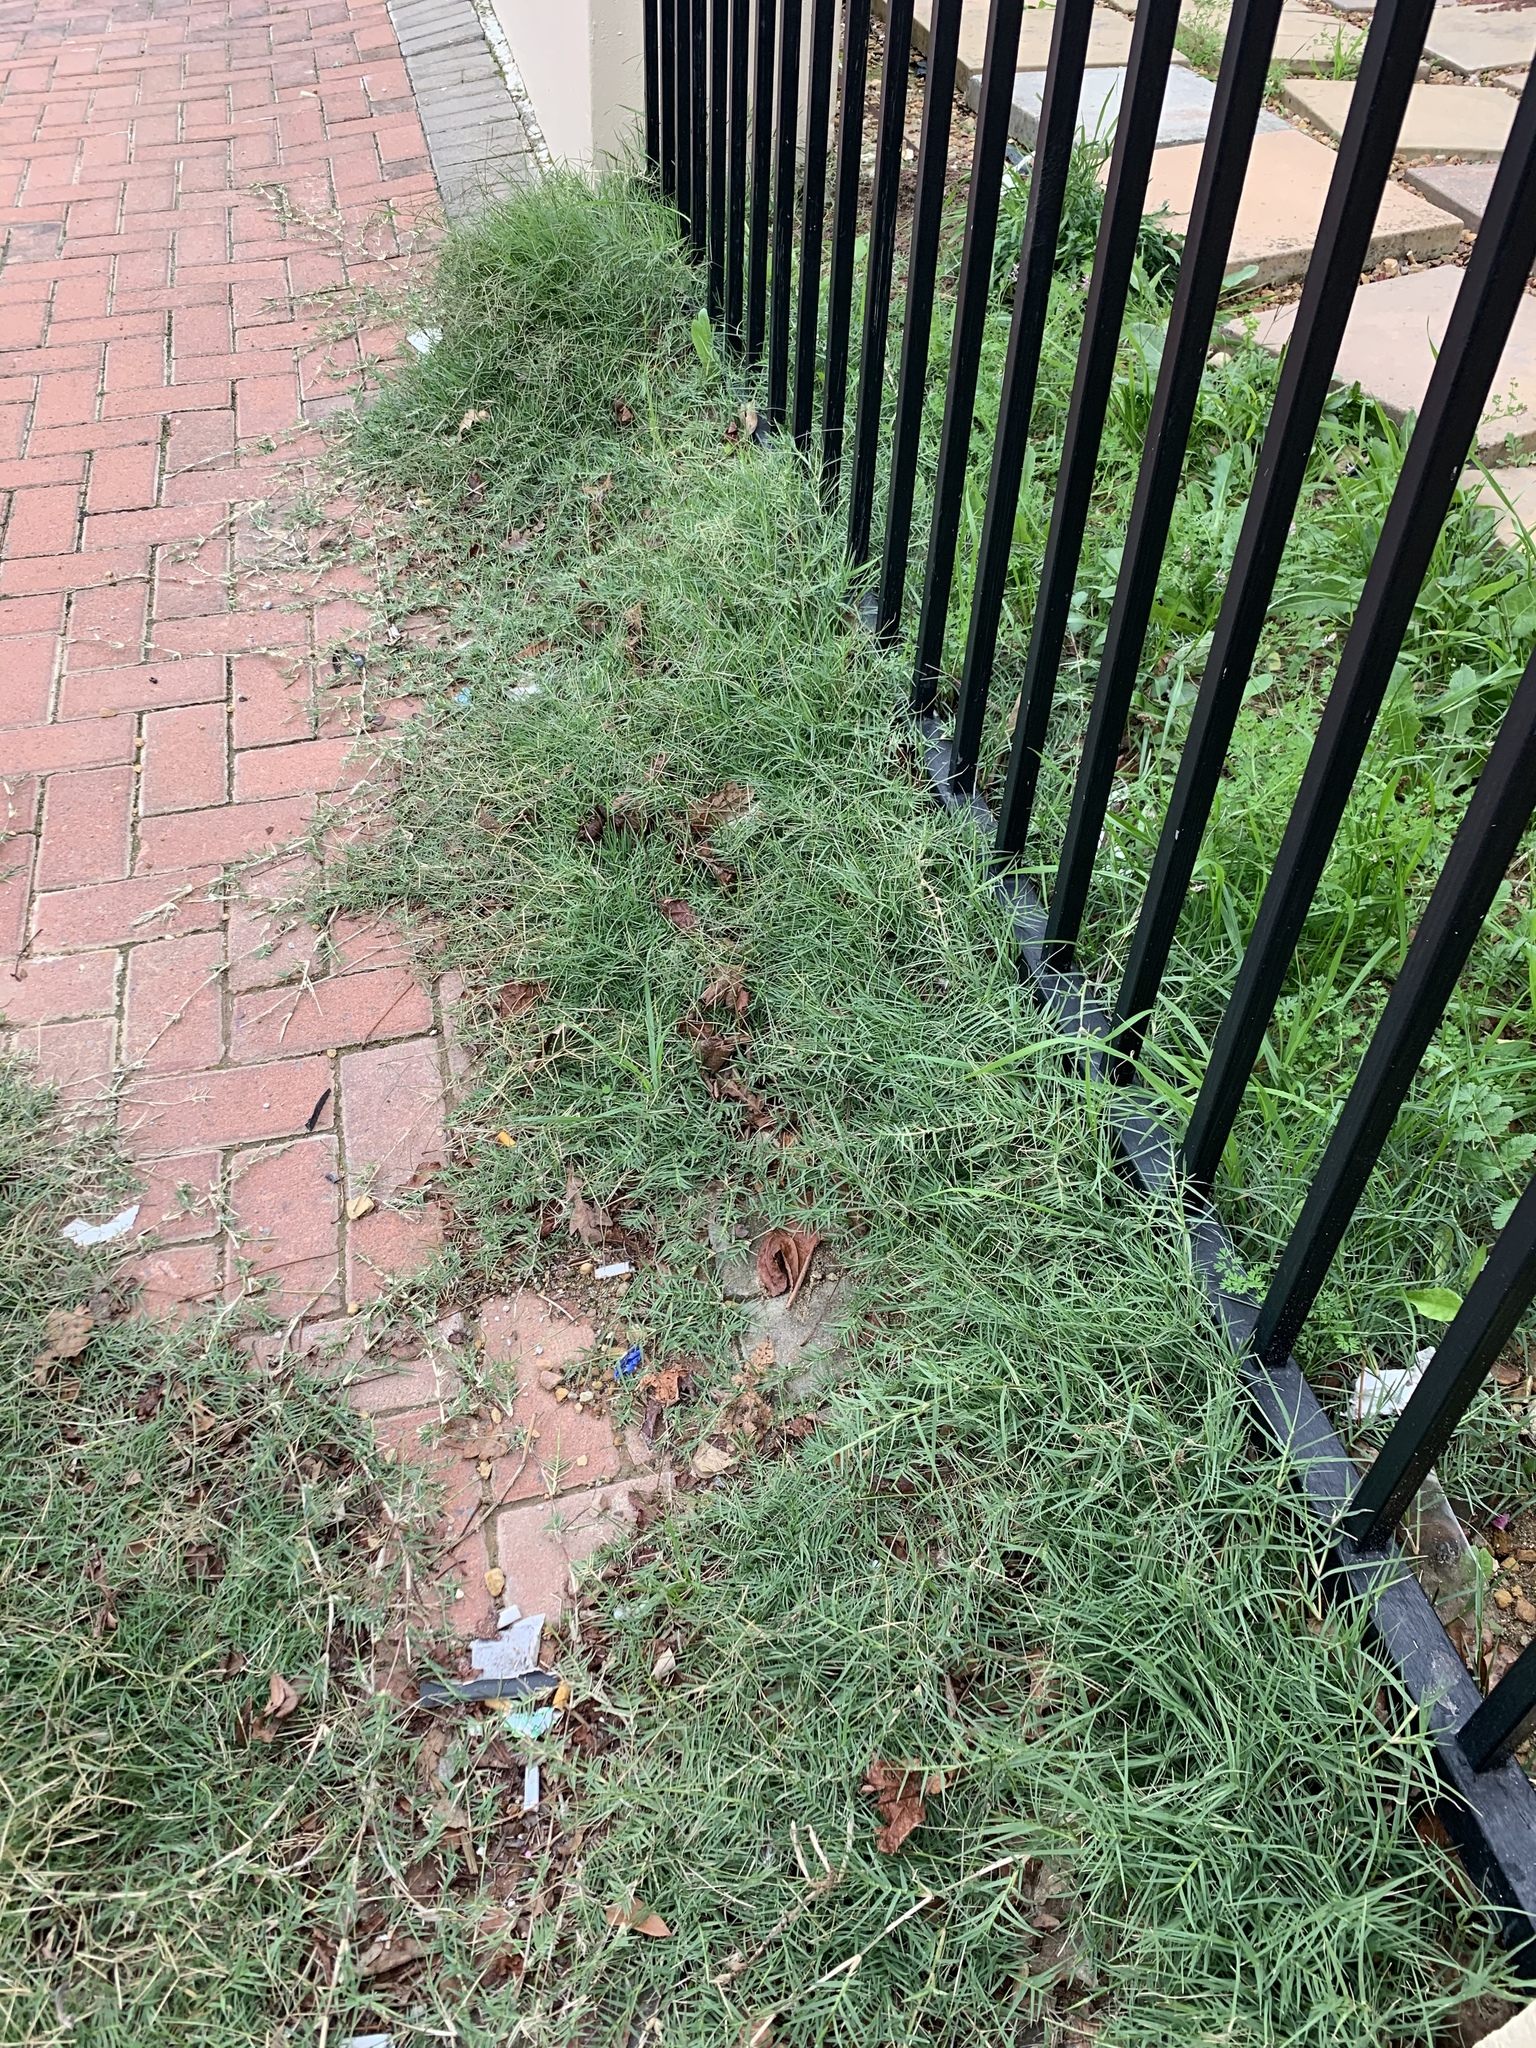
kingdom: Plantae
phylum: Tracheophyta
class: Liliopsida
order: Poales
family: Poaceae
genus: Cynodon
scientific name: Cynodon dactylon
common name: Bermuda grass
